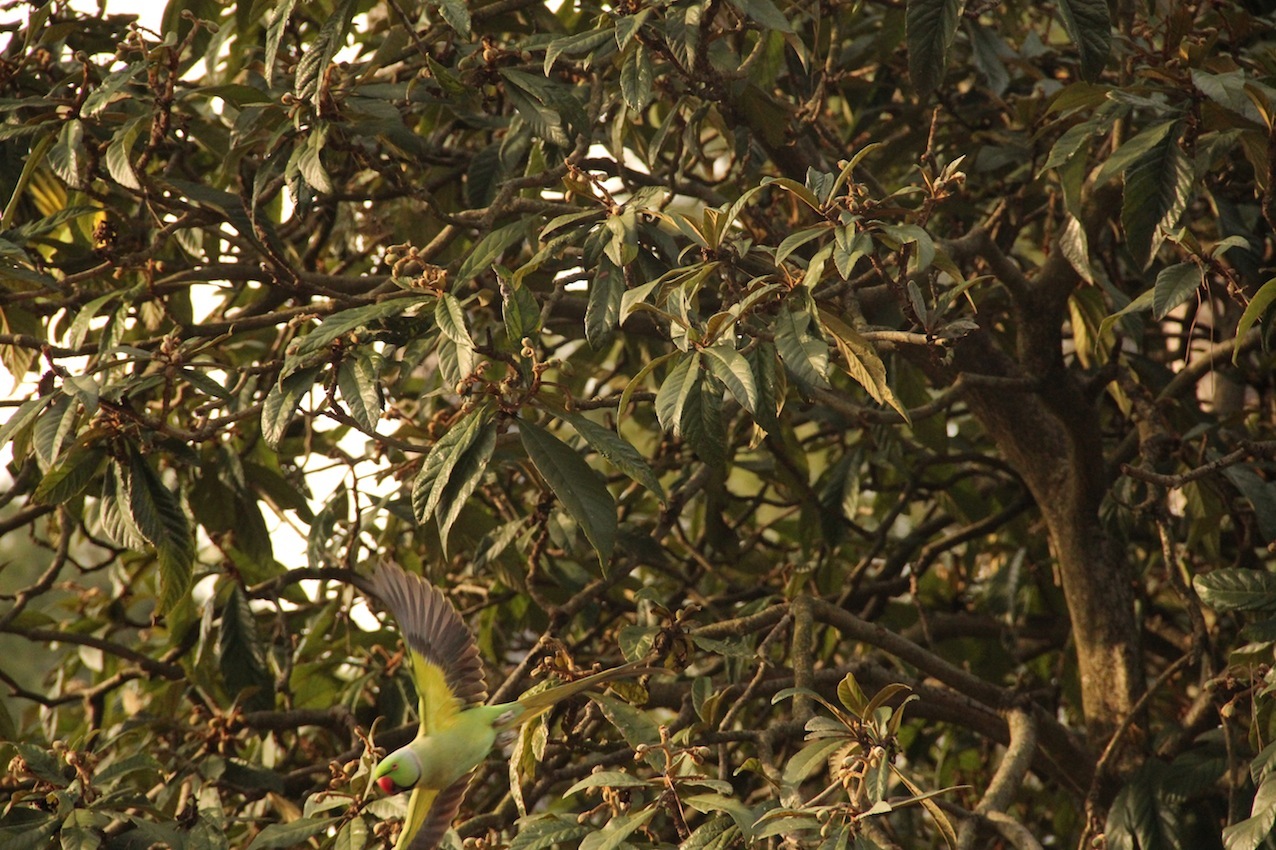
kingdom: Animalia
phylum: Chordata
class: Aves
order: Psittaciformes
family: Psittacidae
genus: Psittacula
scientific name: Psittacula krameri
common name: Rose-ringed parakeet
